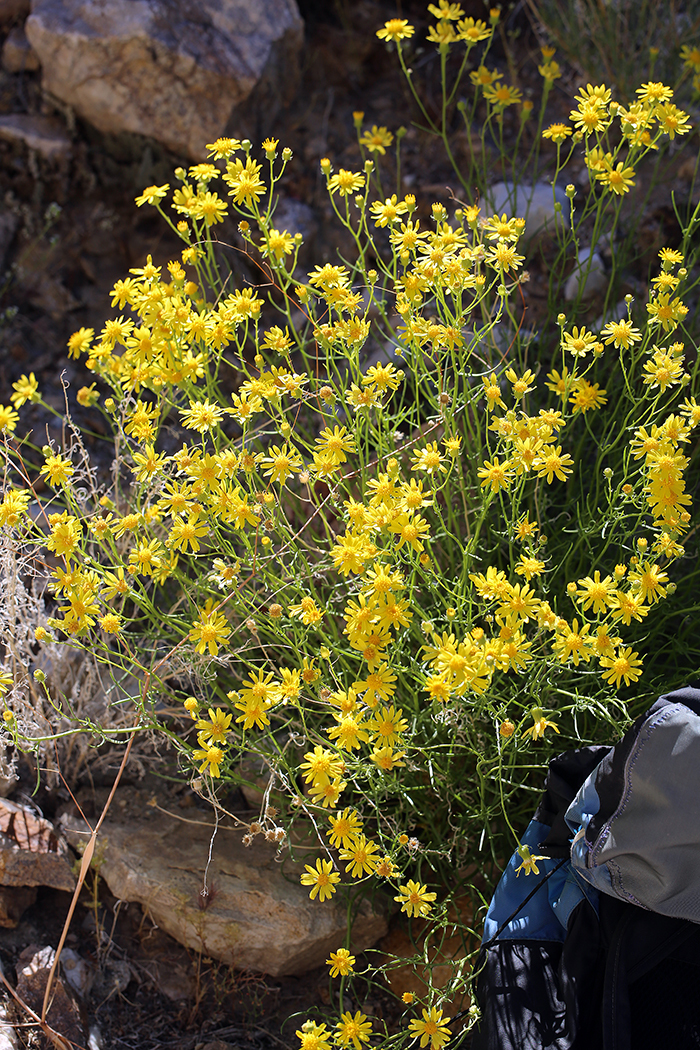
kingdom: Plantae
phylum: Tracheophyta
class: Magnoliopsida
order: Asterales
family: Asteraceae
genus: Senecio
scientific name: Senecio flaccidus
